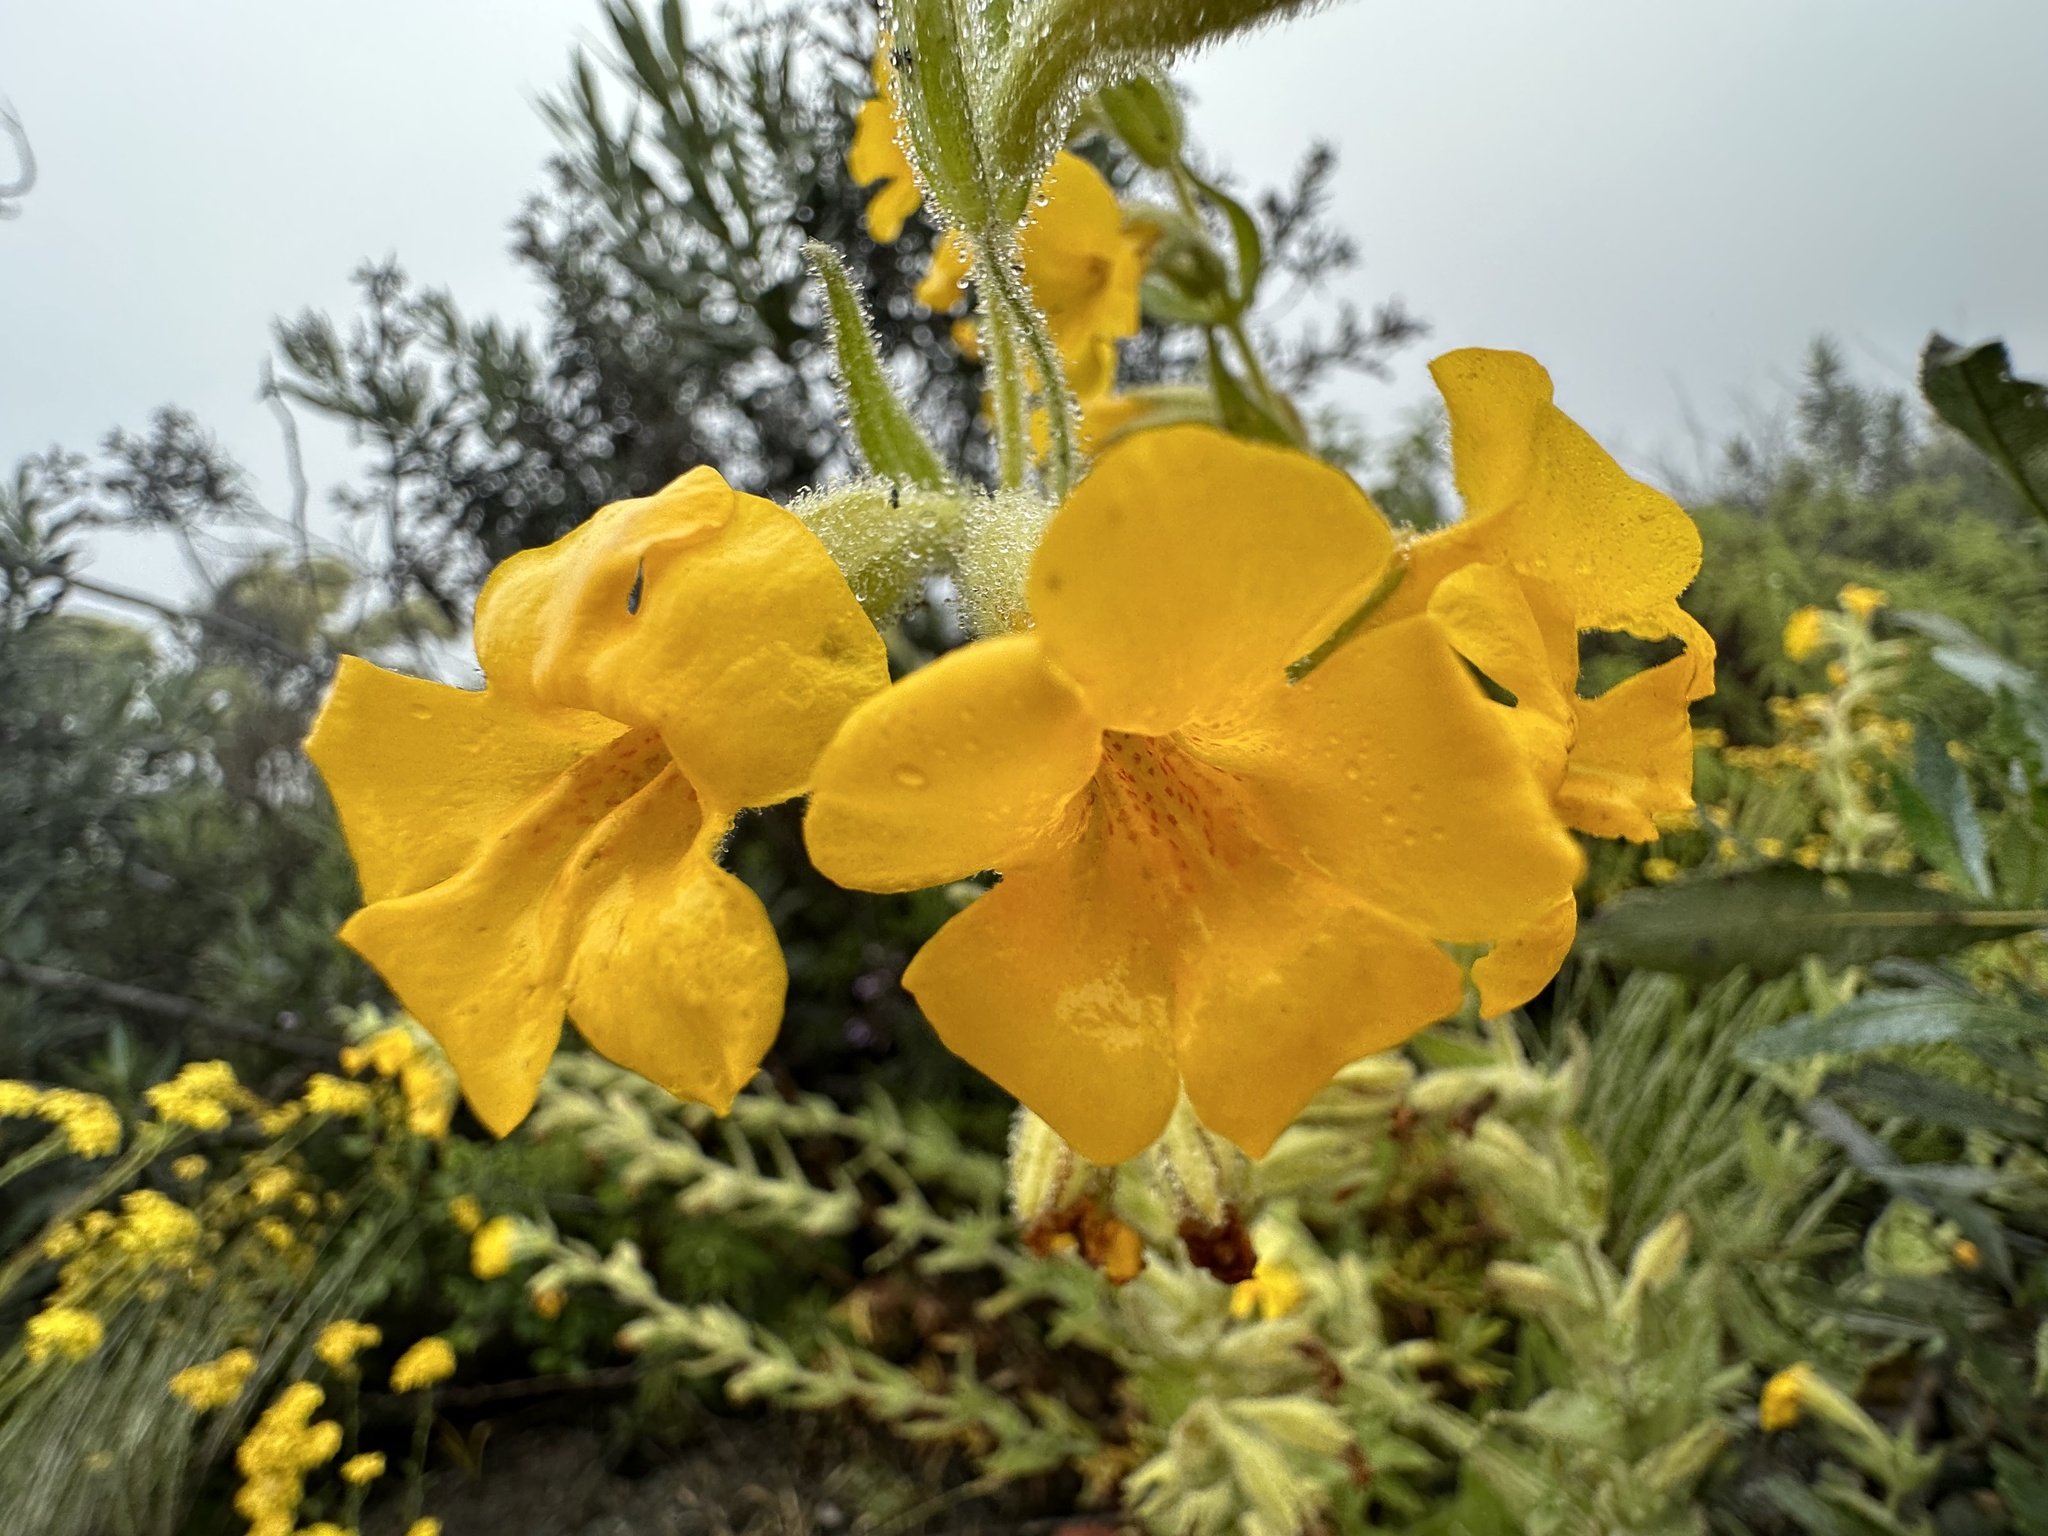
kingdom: Plantae
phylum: Tracheophyta
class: Magnoliopsida
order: Lamiales
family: Phrymaceae
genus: Diplacus
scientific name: Diplacus clevelandii
